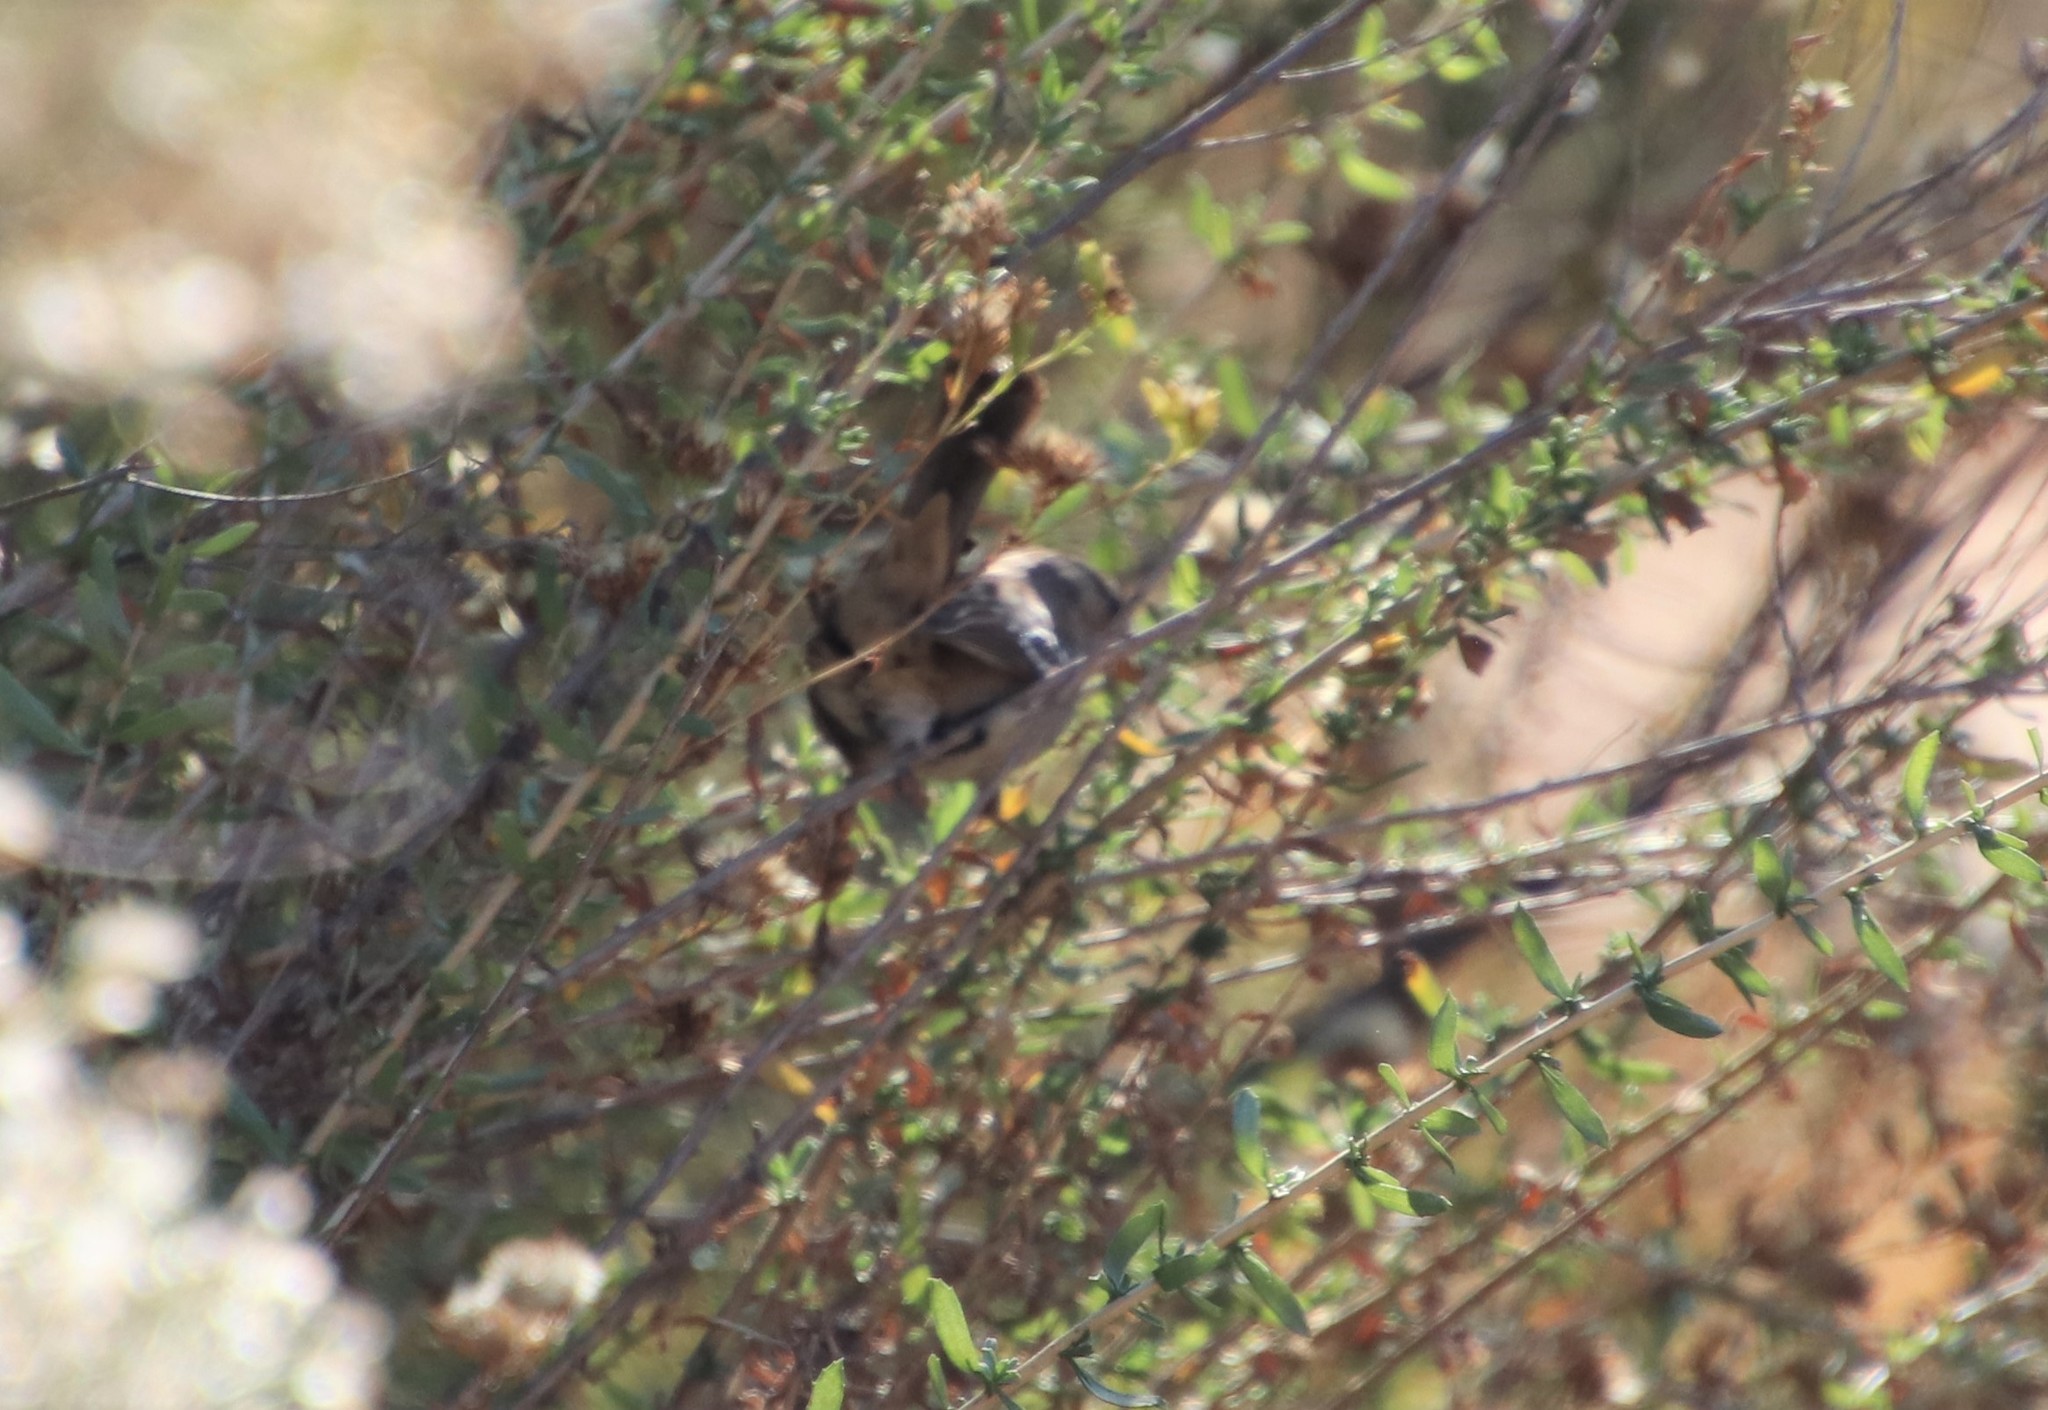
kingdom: Animalia
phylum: Chordata
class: Aves
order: Passeriformes
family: Passerellidae
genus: Zonotrichia
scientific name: Zonotrichia leucophrys
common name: White-crowned sparrow
